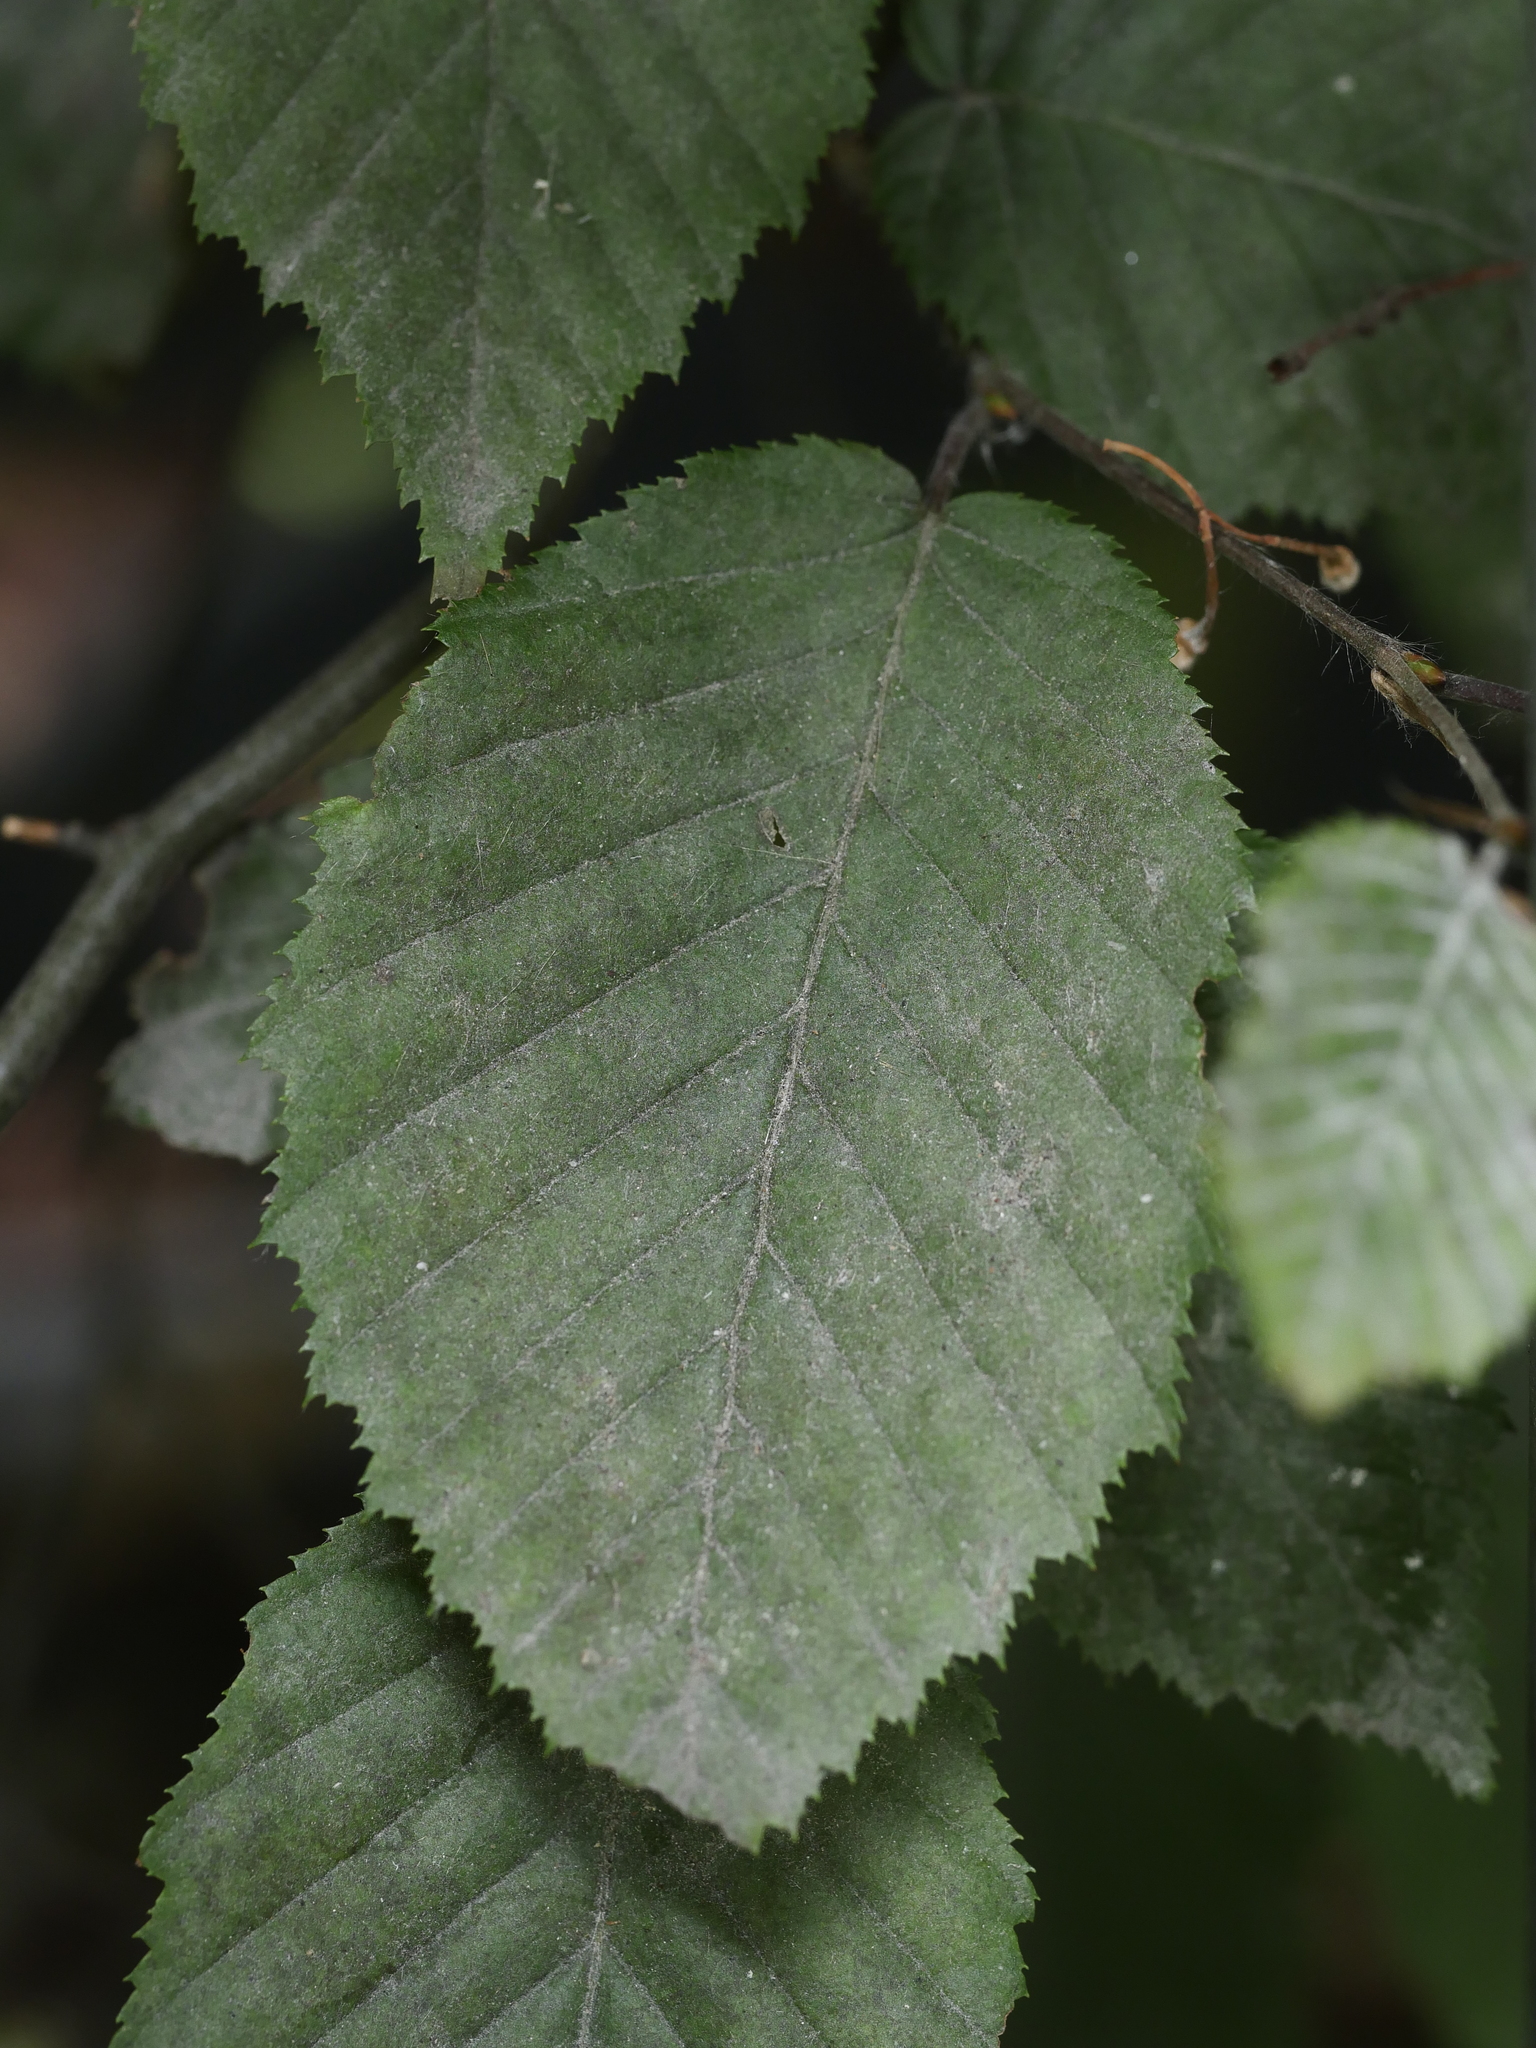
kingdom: Fungi
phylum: Ascomycota
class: Leotiomycetes
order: Helotiales
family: Erysiphaceae
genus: Erysiphe
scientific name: Erysiphe arcuata
